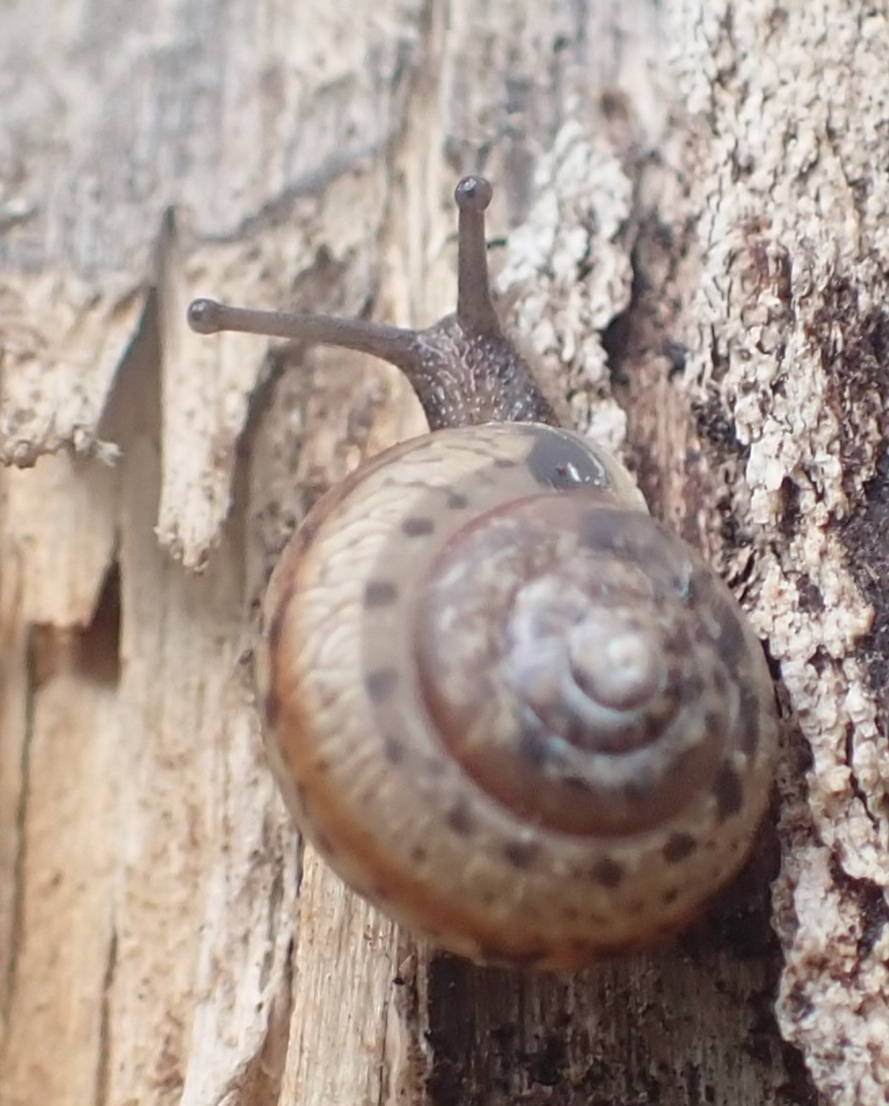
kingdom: Animalia
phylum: Mollusca
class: Gastropoda
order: Stylommatophora
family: Camaenidae
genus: Fruticicola
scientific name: Fruticicola fruticum
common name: Bush snail
